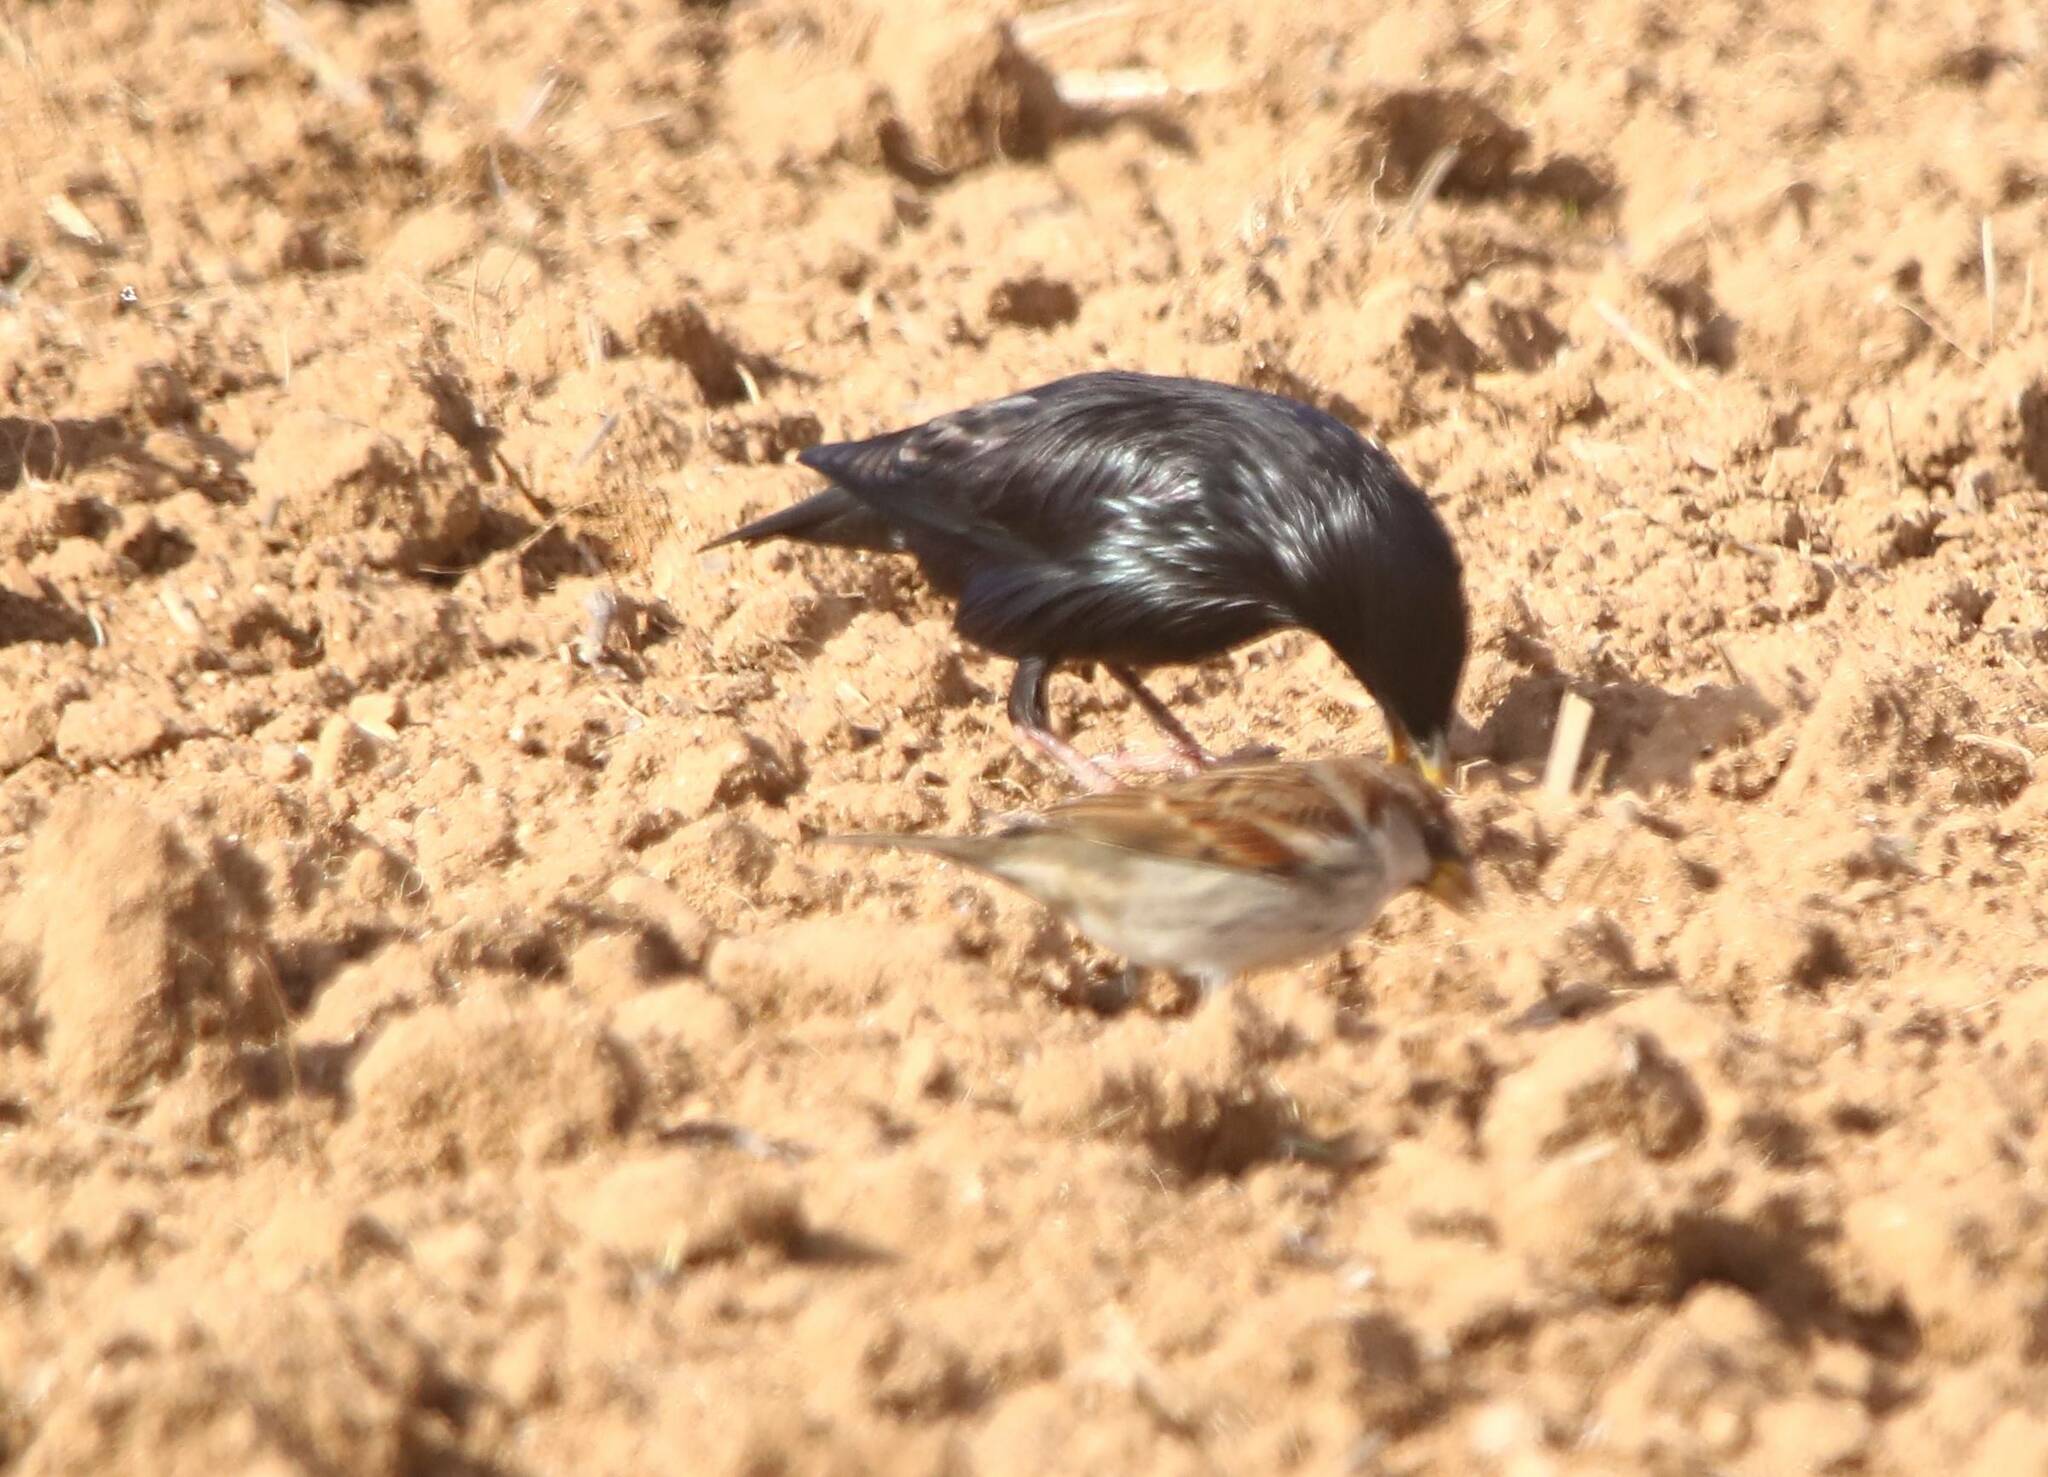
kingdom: Animalia
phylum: Chordata
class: Aves
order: Passeriformes
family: Sturnidae
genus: Sturnus
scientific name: Sturnus unicolor
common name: Spotless starling
